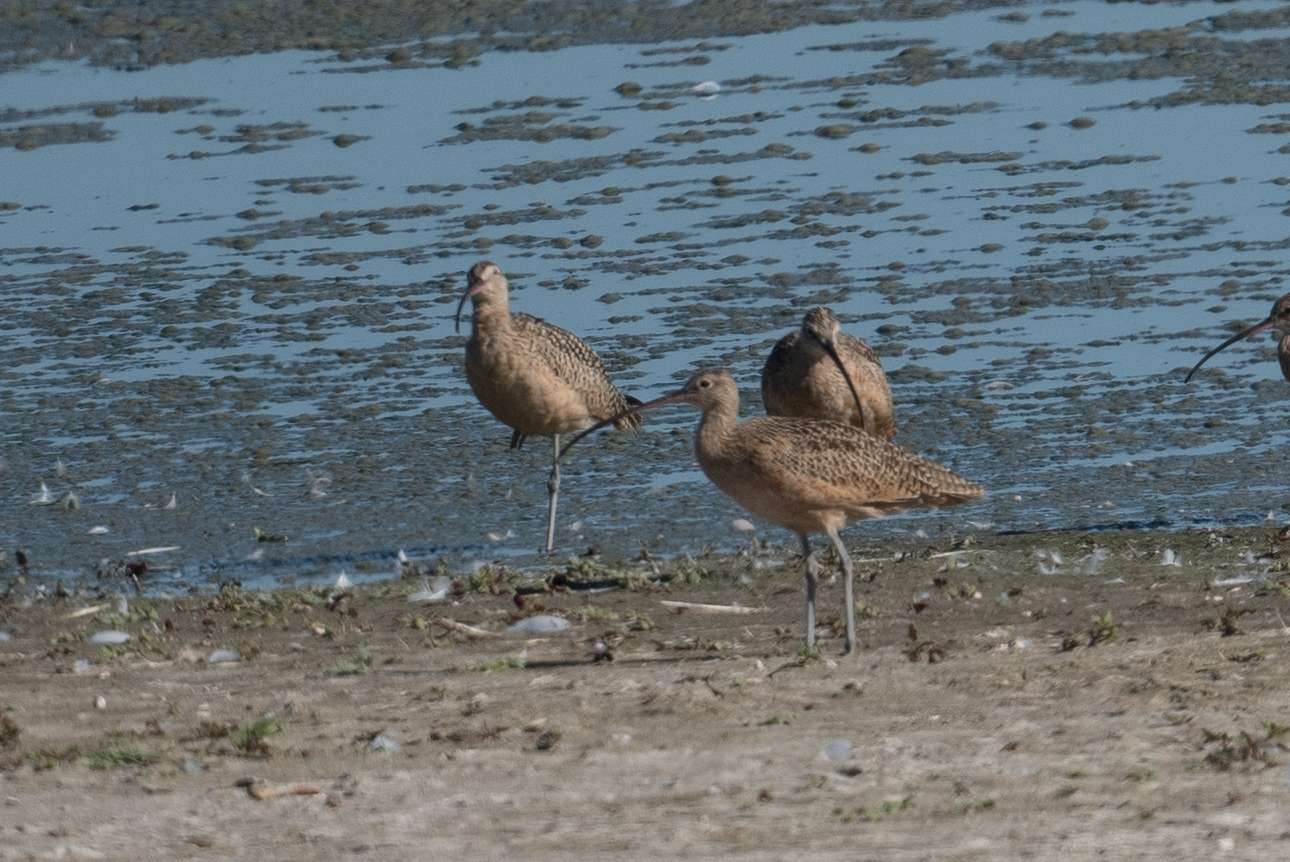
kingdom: Animalia
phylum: Chordata
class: Aves
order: Charadriiformes
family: Scolopacidae
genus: Numenius
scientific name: Numenius americanus
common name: Long-billed curlew
